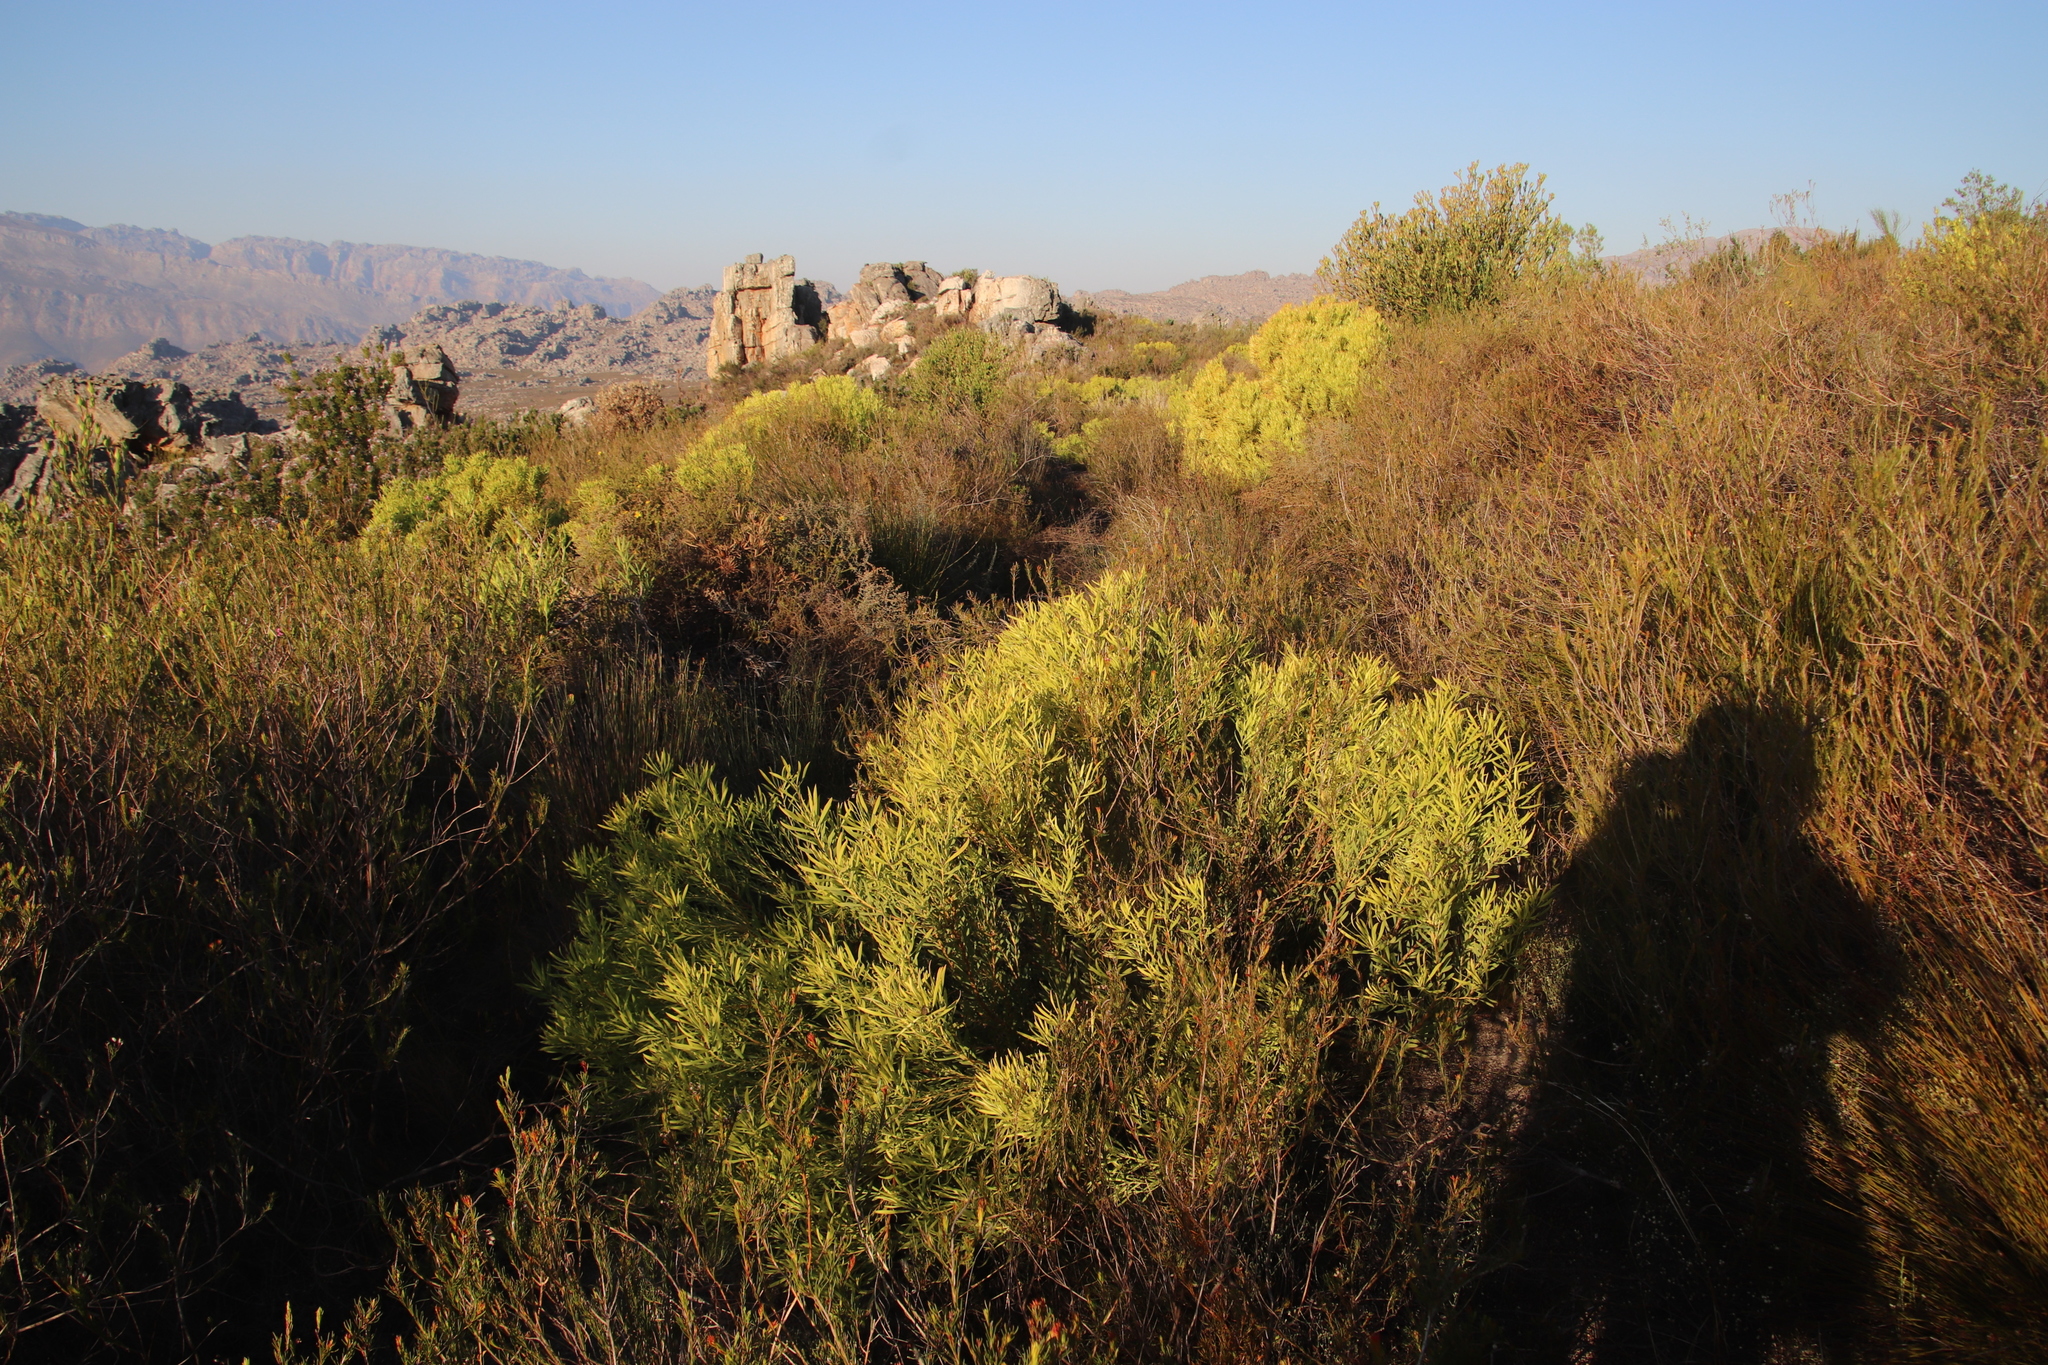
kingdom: Plantae
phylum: Tracheophyta
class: Magnoliopsida
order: Proteales
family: Proteaceae
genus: Leucadendron
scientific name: Leucadendron salignum
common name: Common sunshine conebush
